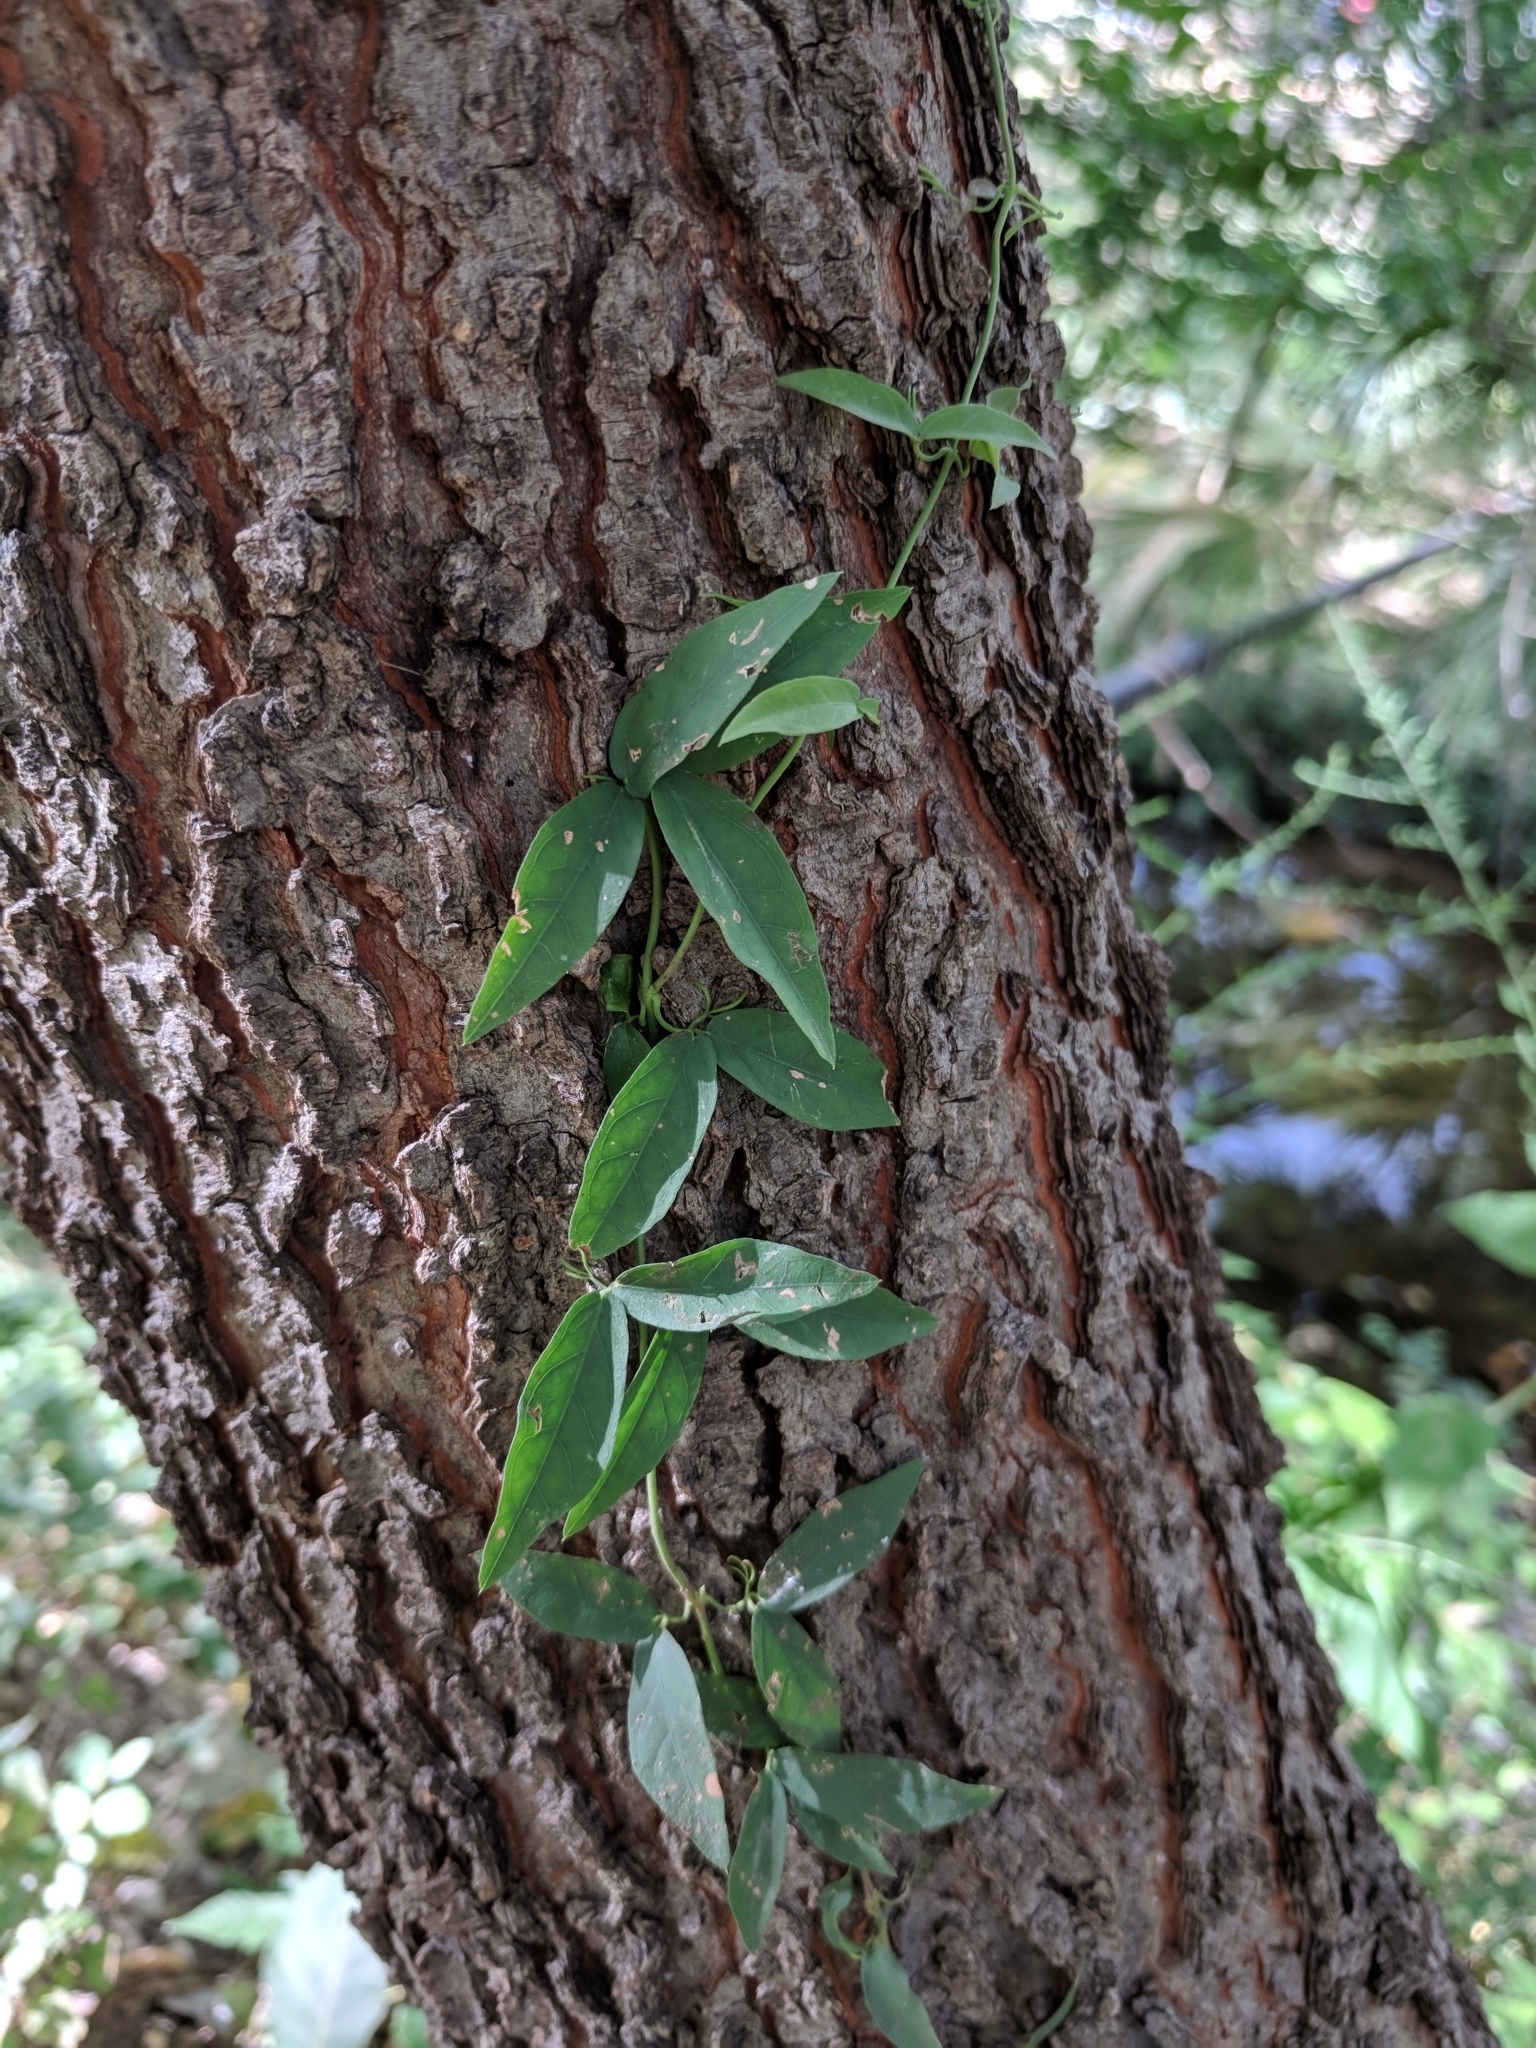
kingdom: Plantae
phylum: Tracheophyta
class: Magnoliopsida
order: Lamiales
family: Bignoniaceae
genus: Dolichandra
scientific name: Dolichandra unguis-cati
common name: Catclaw vine
